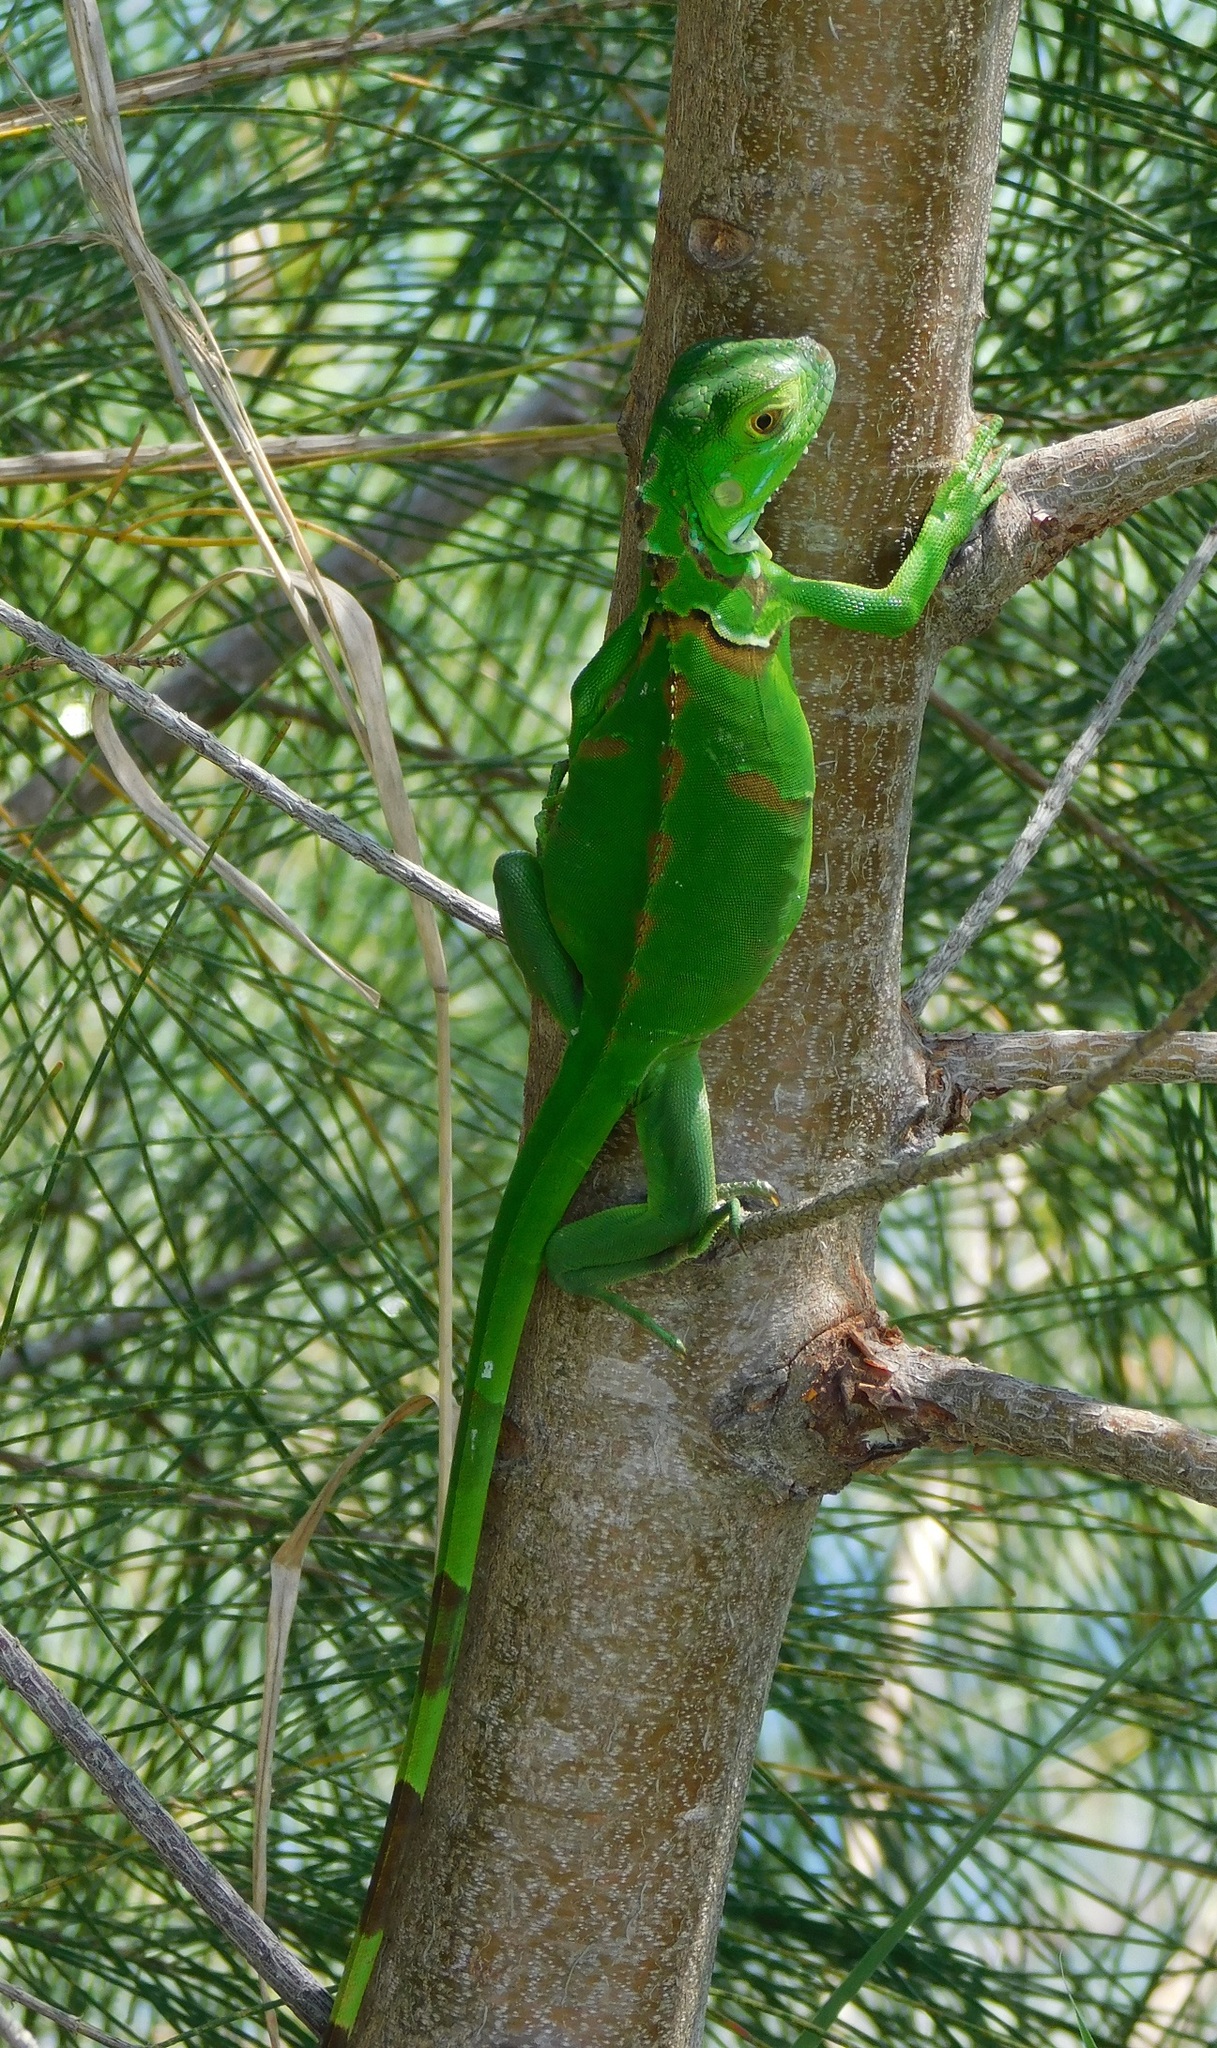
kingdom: Animalia
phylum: Chordata
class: Squamata
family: Iguanidae
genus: Iguana
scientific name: Iguana iguana
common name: Green iguana
